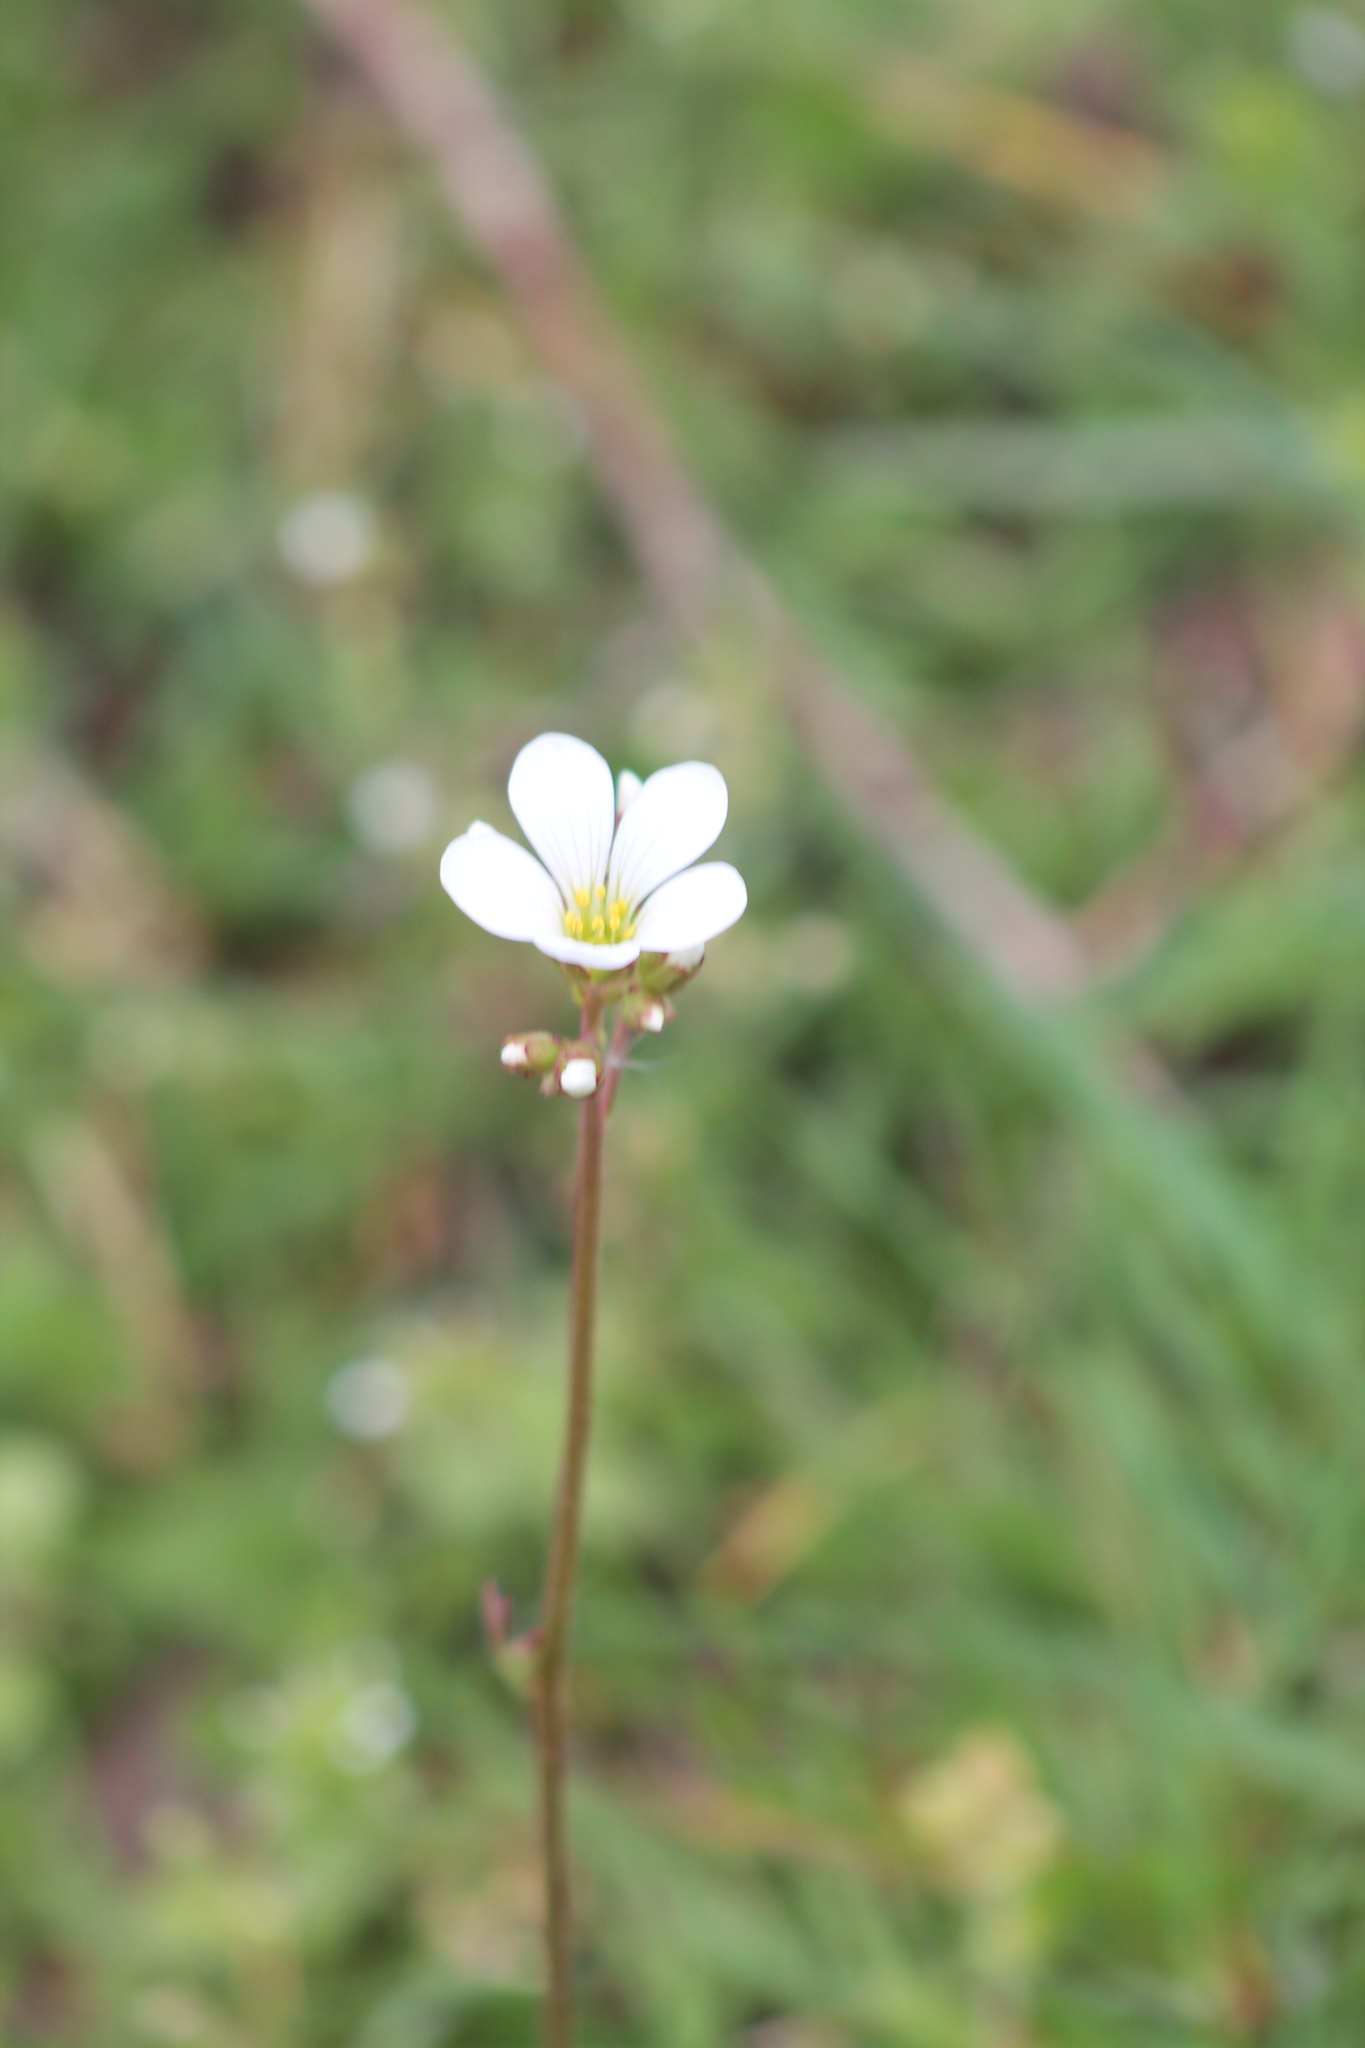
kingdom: Plantae
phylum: Tracheophyta
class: Magnoliopsida
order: Saxifragales
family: Saxifragaceae
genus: Saxifraga
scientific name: Saxifraga granulata
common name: Meadow saxifrage
